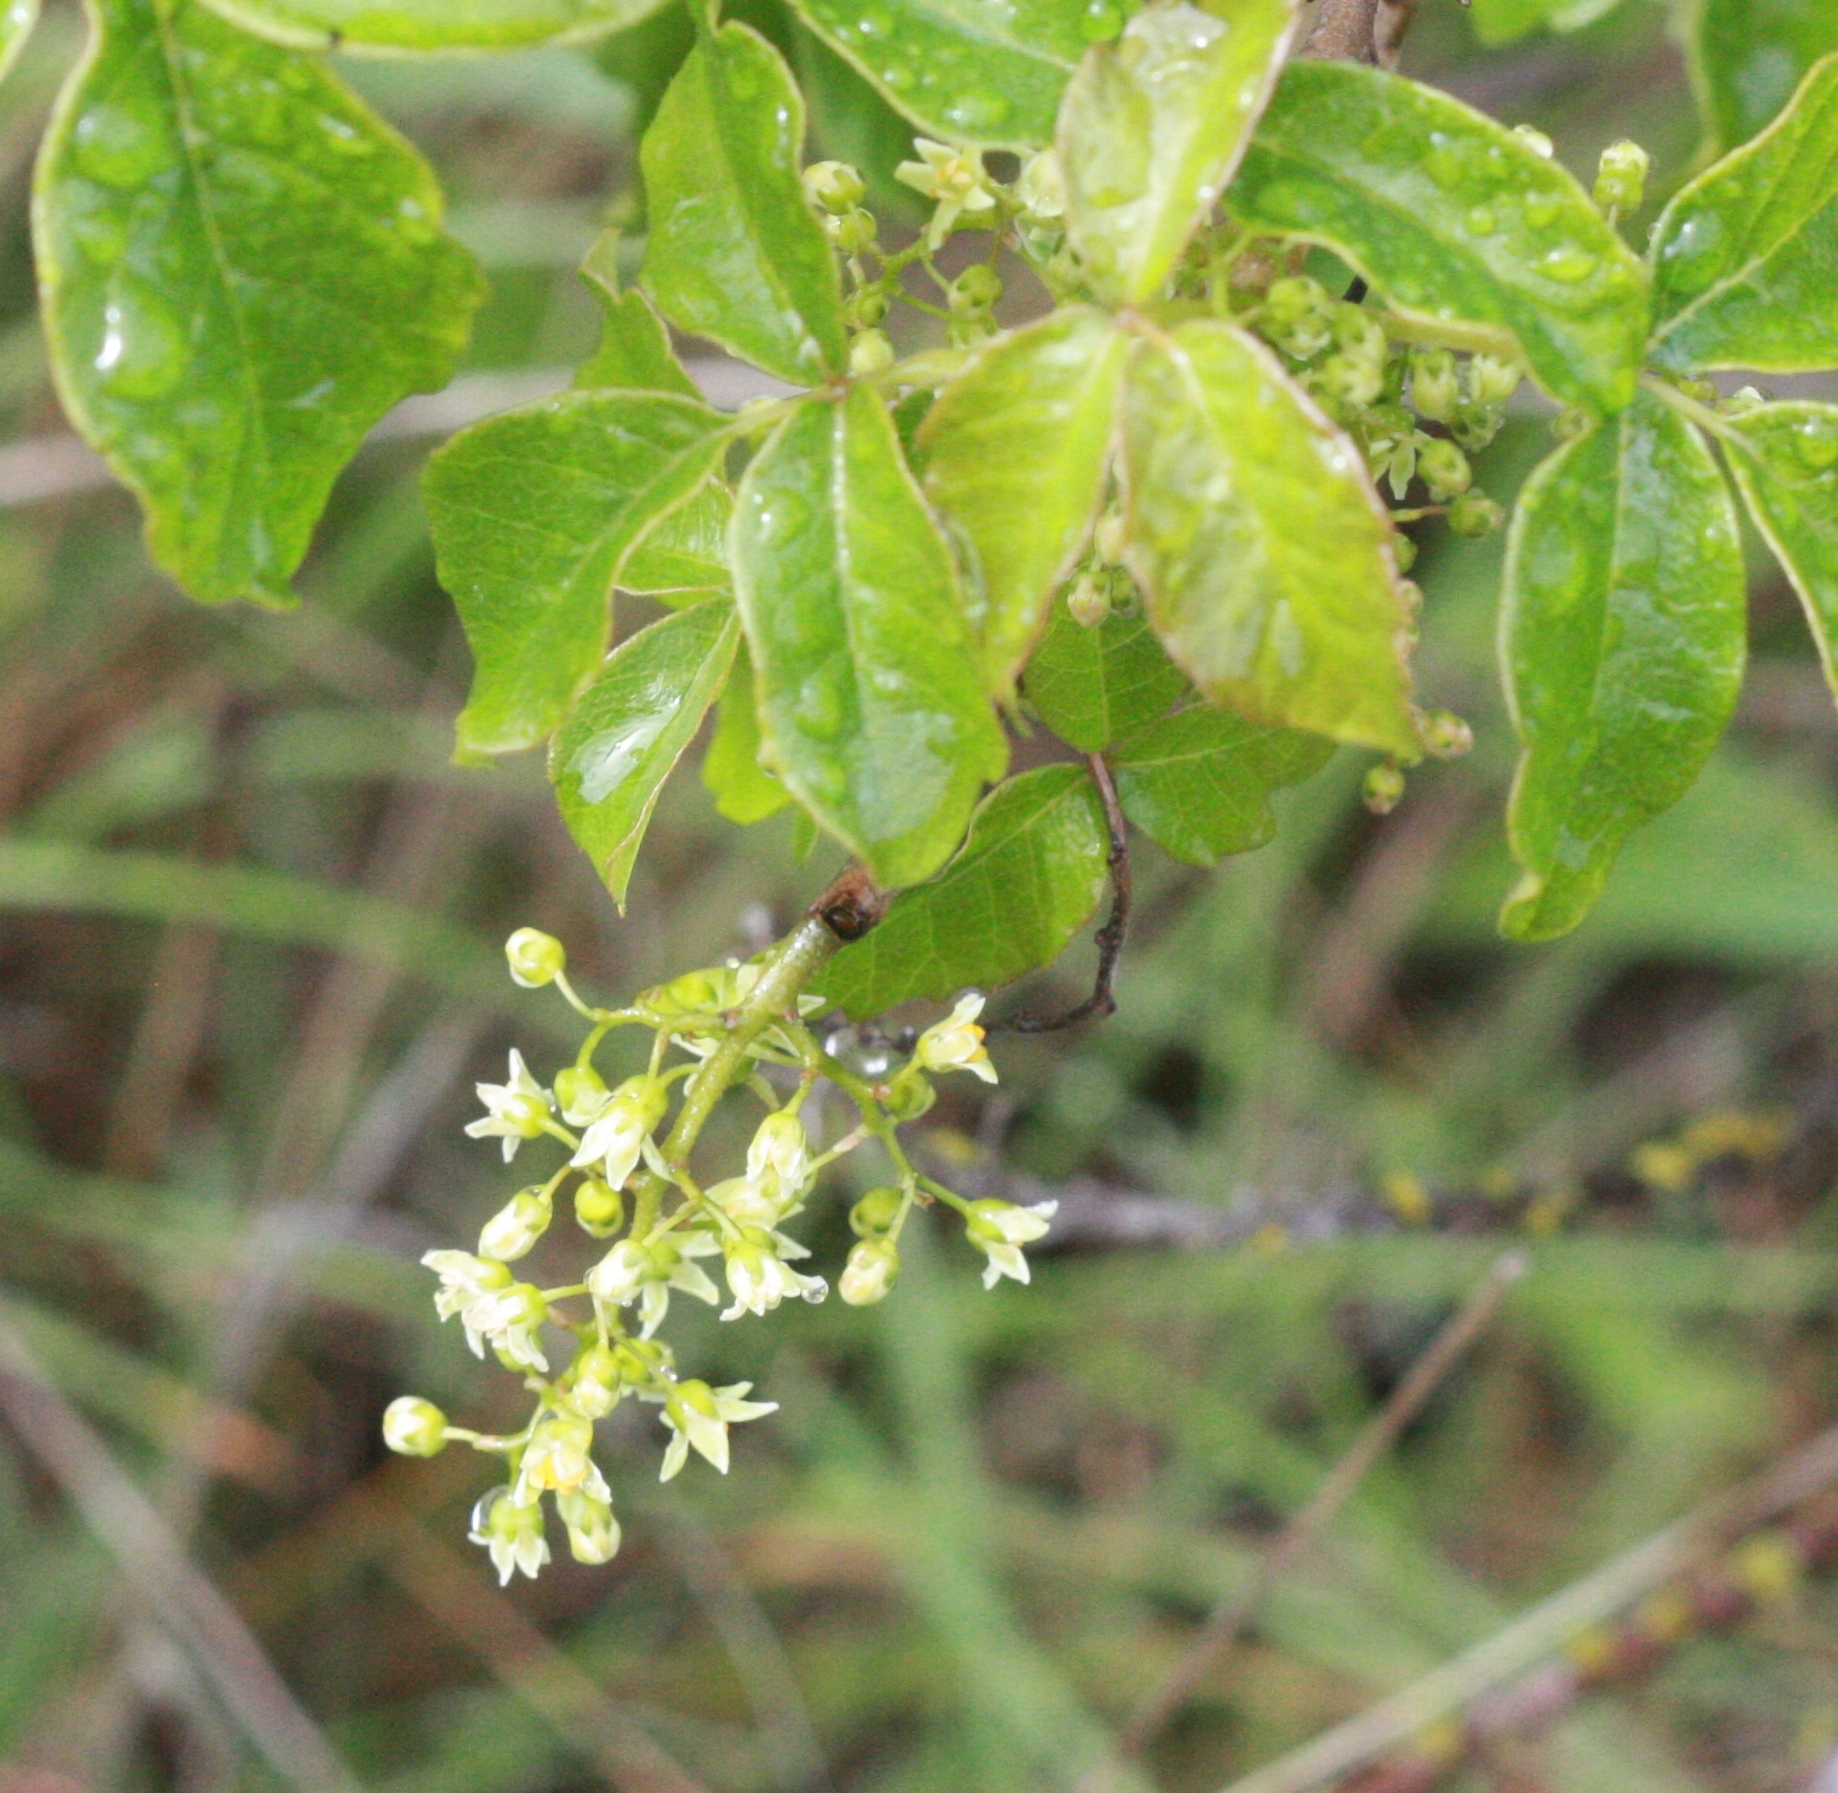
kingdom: Plantae
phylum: Tracheophyta
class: Magnoliopsida
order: Sapindales
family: Anacardiaceae
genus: Toxicodendron
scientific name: Toxicodendron diversilobum
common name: Pacific poison-oak
